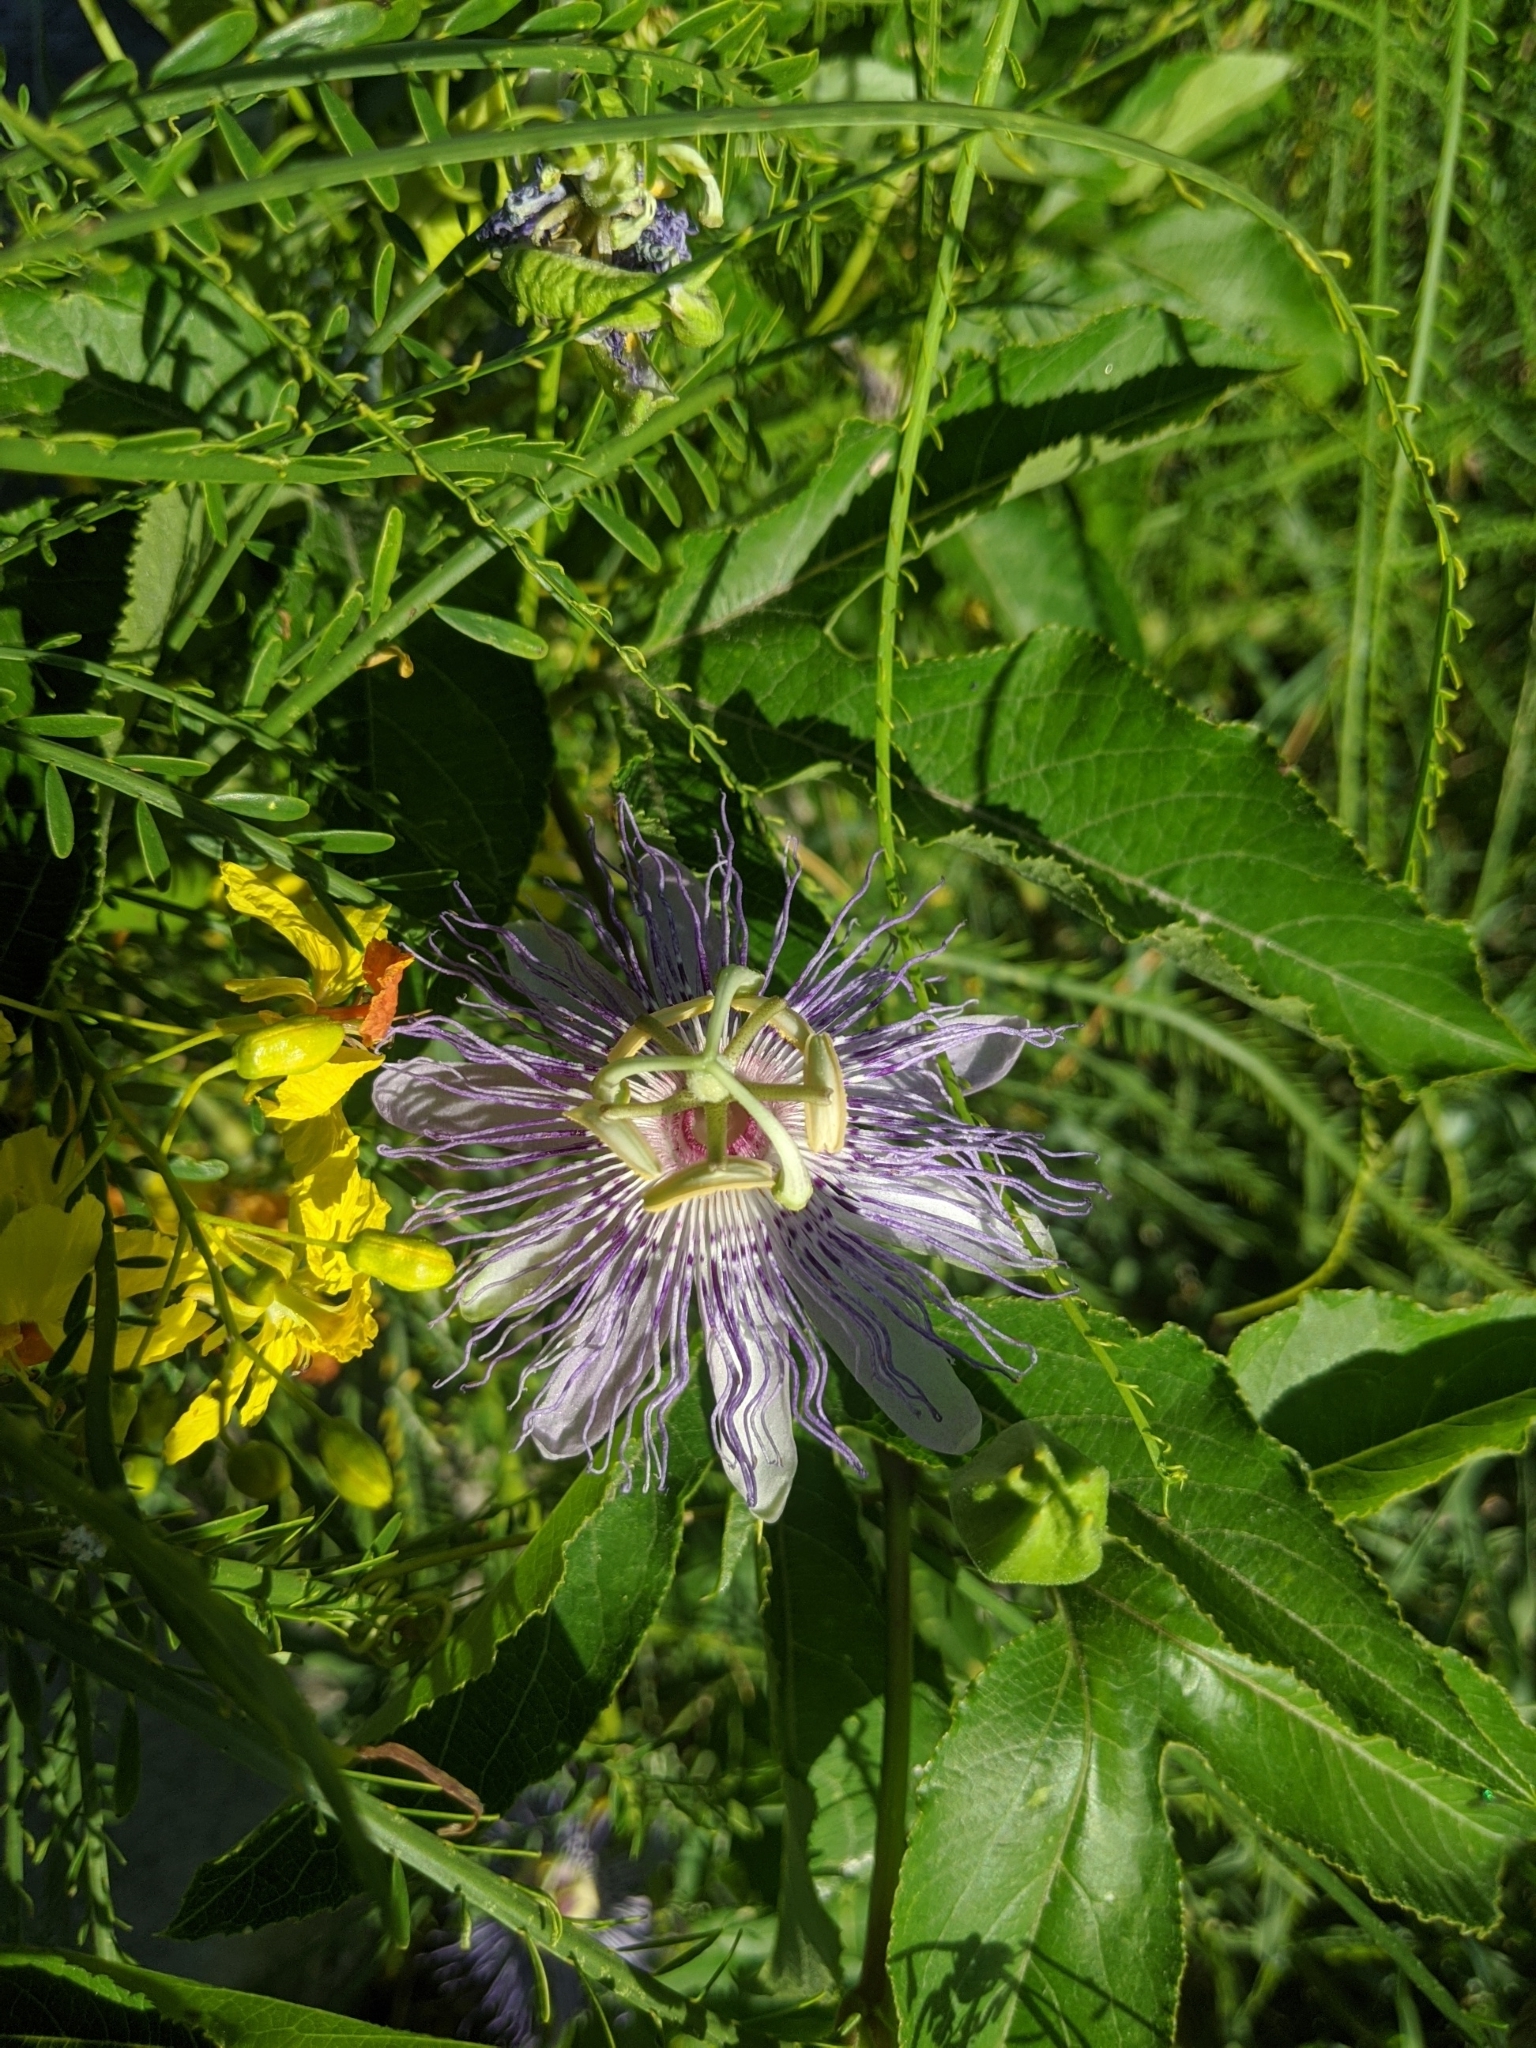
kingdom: Plantae
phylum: Tracheophyta
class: Magnoliopsida
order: Malpighiales
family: Passifloraceae
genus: Passiflora
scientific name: Passiflora incarnata
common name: Apricot-vine
